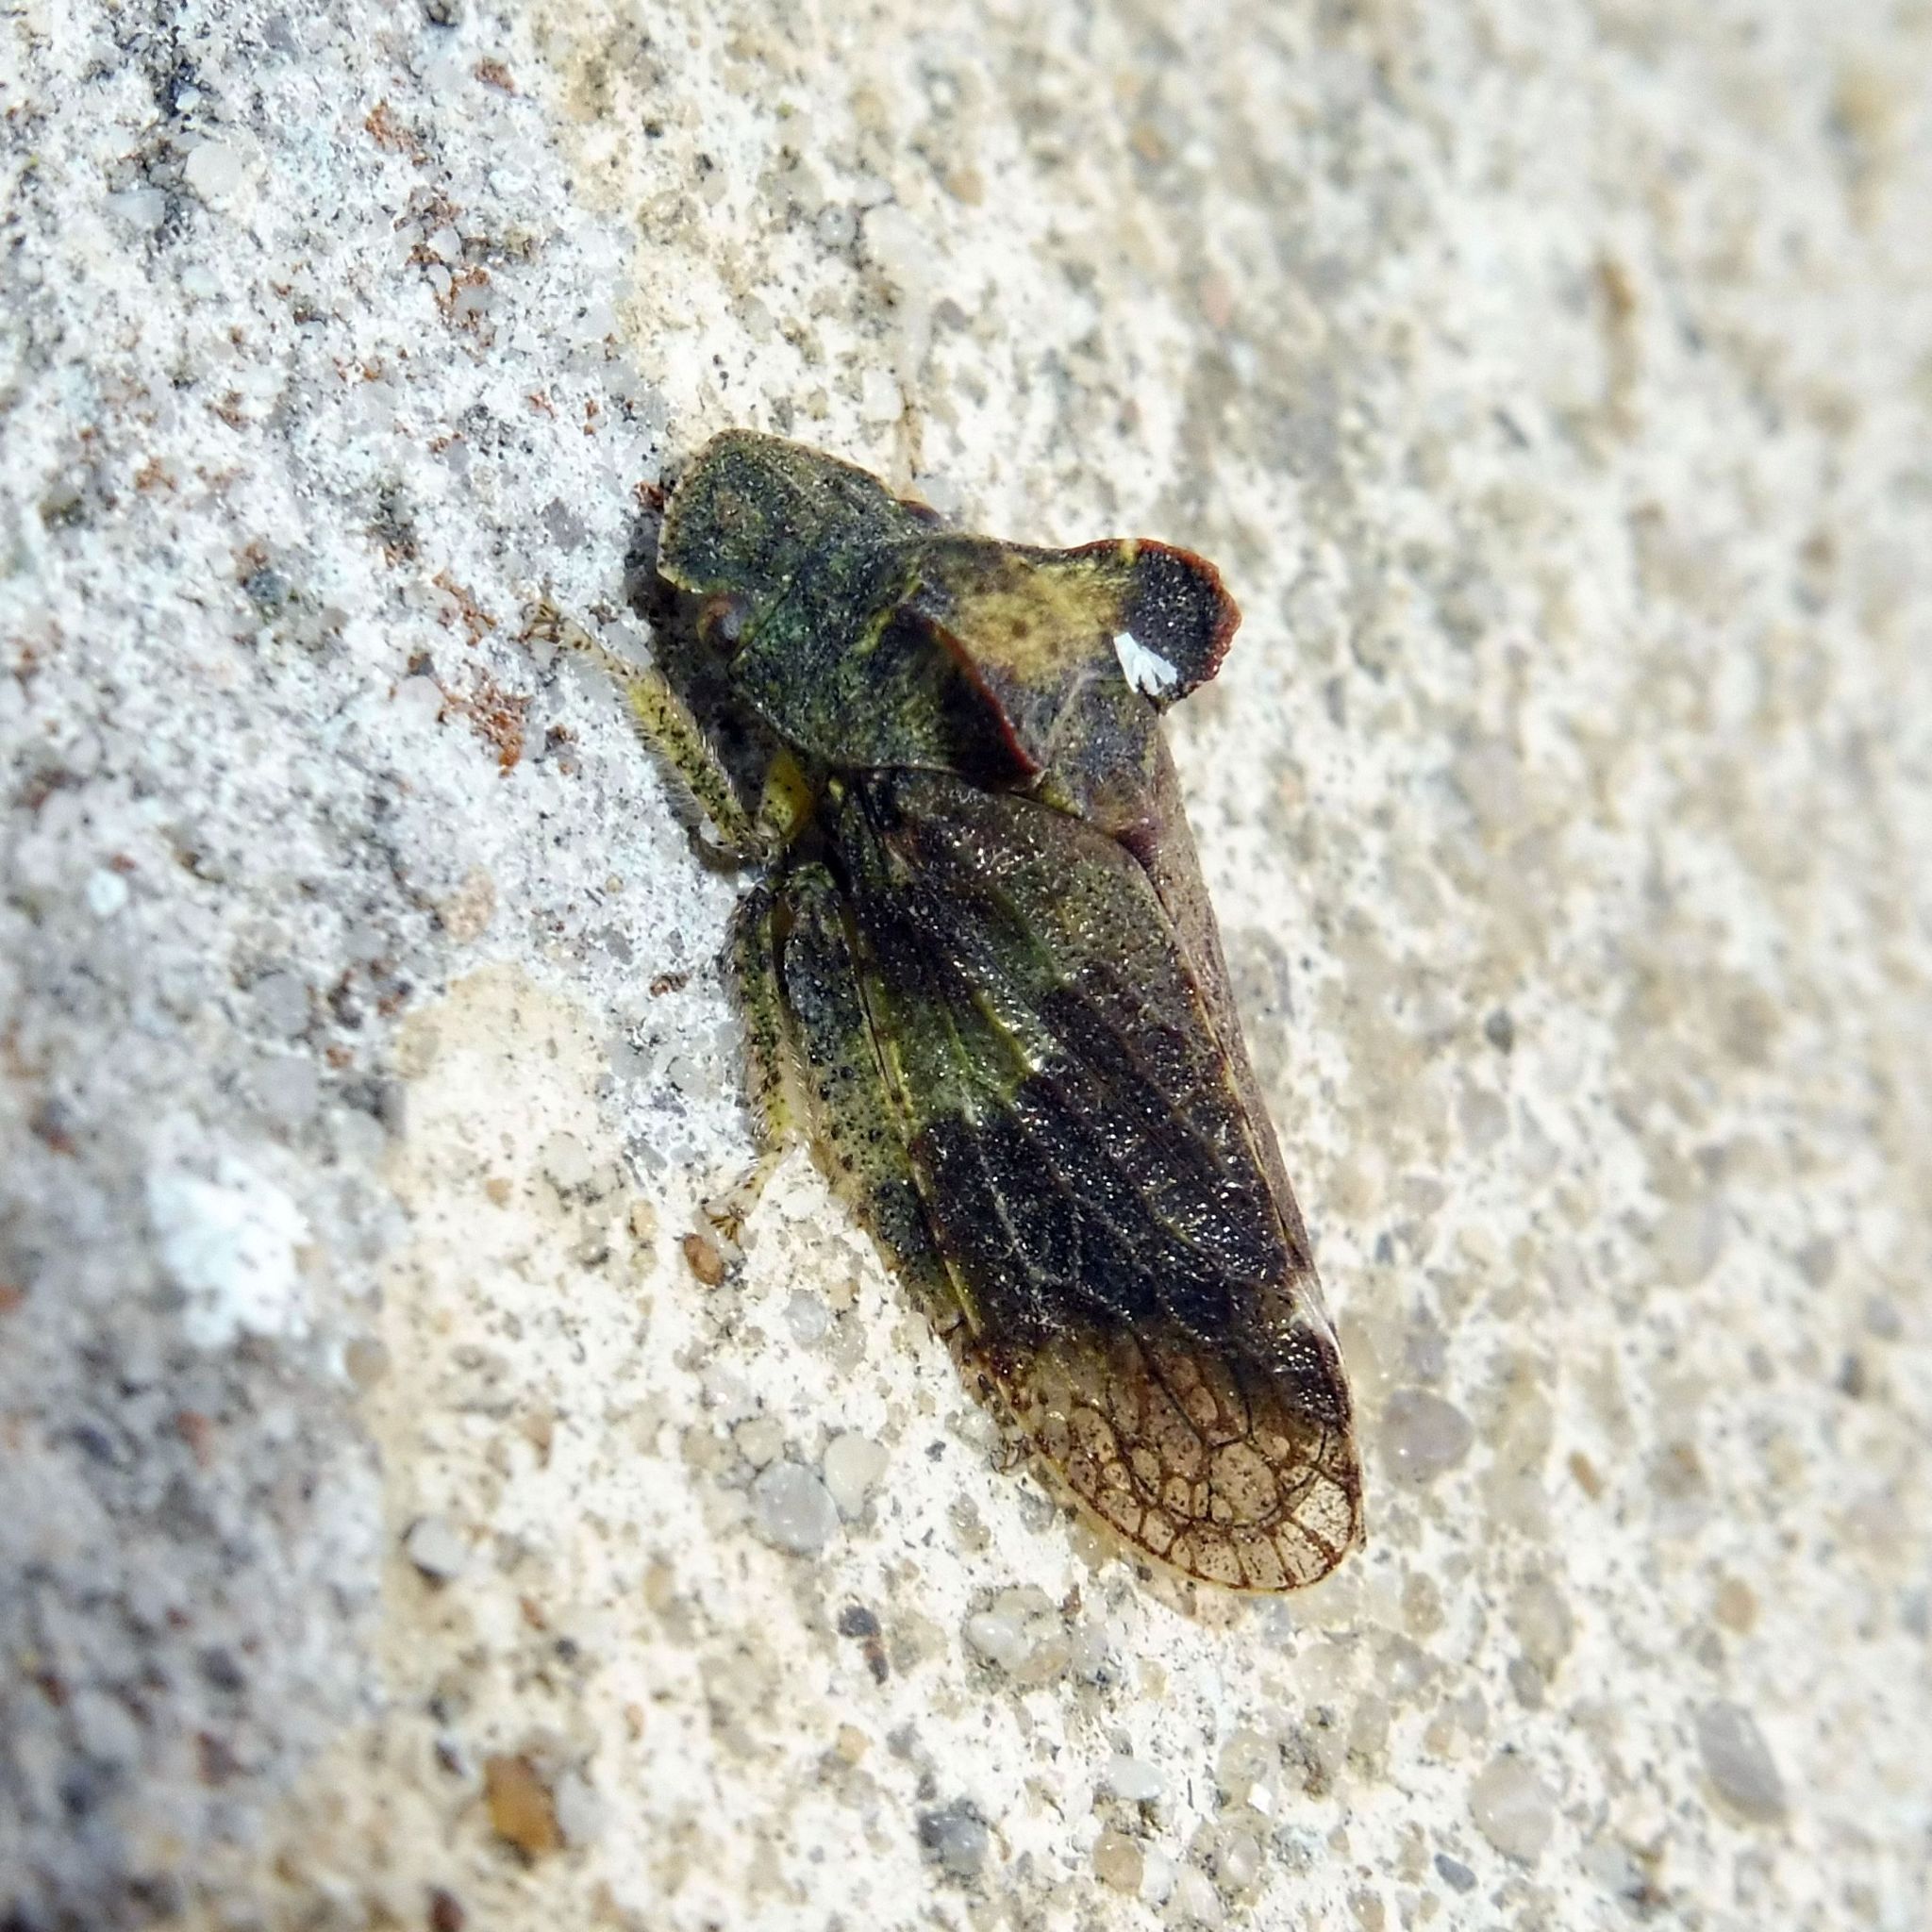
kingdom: Animalia
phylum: Arthropoda
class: Insecta
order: Hemiptera
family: Cicadellidae
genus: Ledra
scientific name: Ledra aurita
